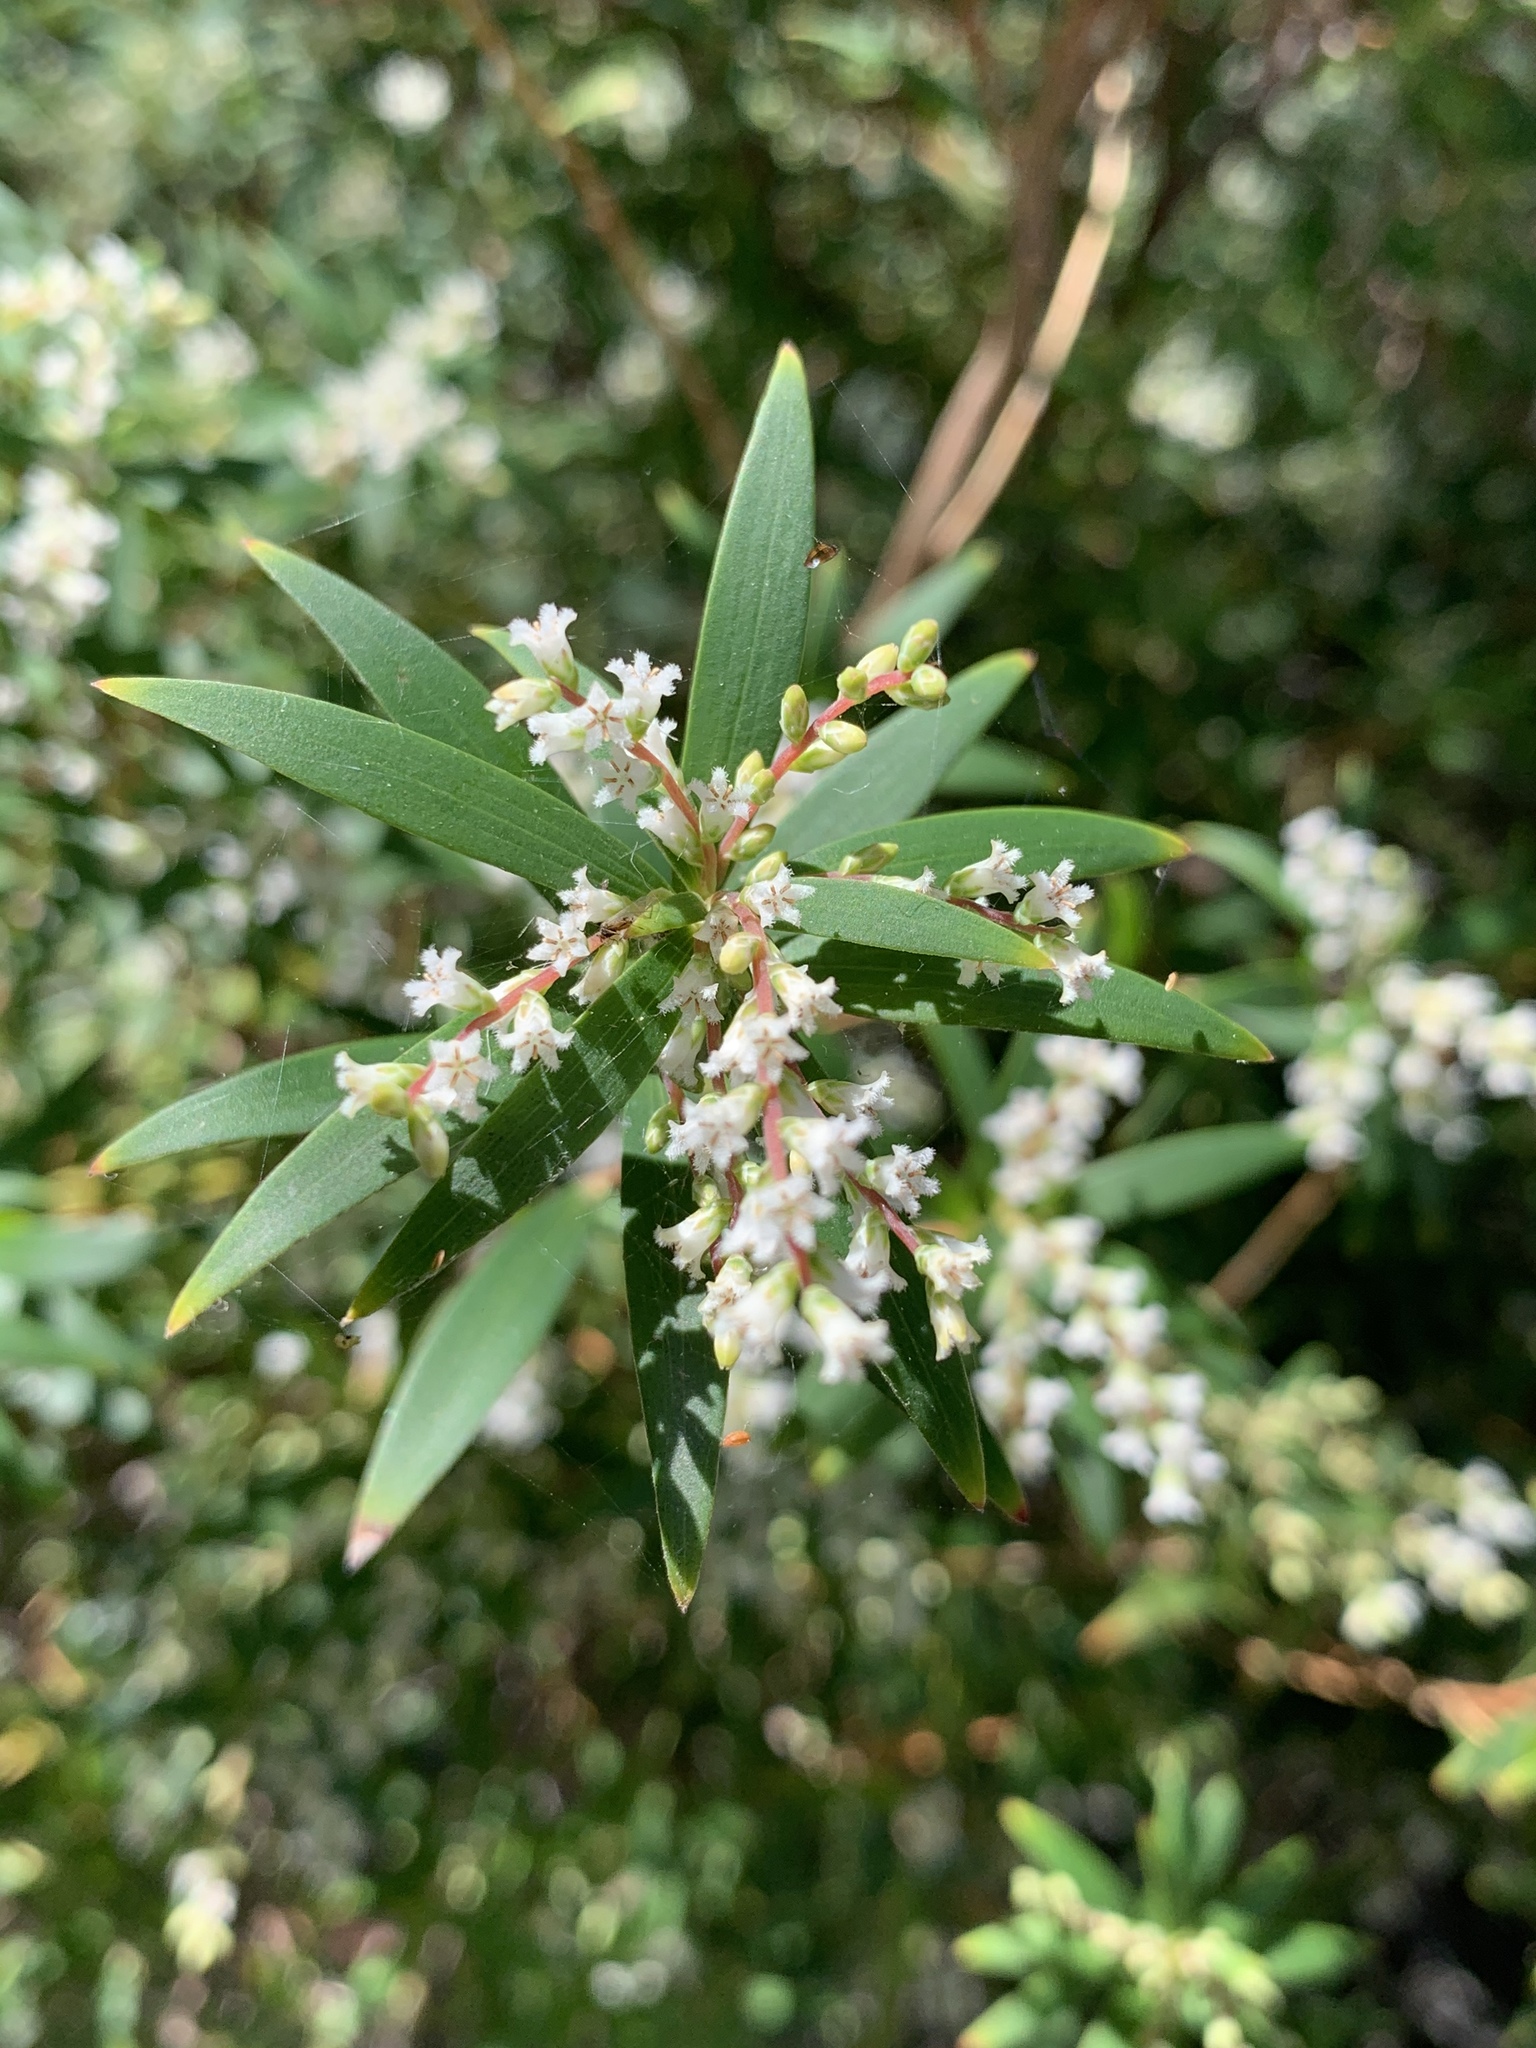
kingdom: Plantae
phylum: Tracheophyta
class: Magnoliopsida
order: Ericales
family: Ericaceae
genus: Leucopogon
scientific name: Leucopogon lanceolatus
